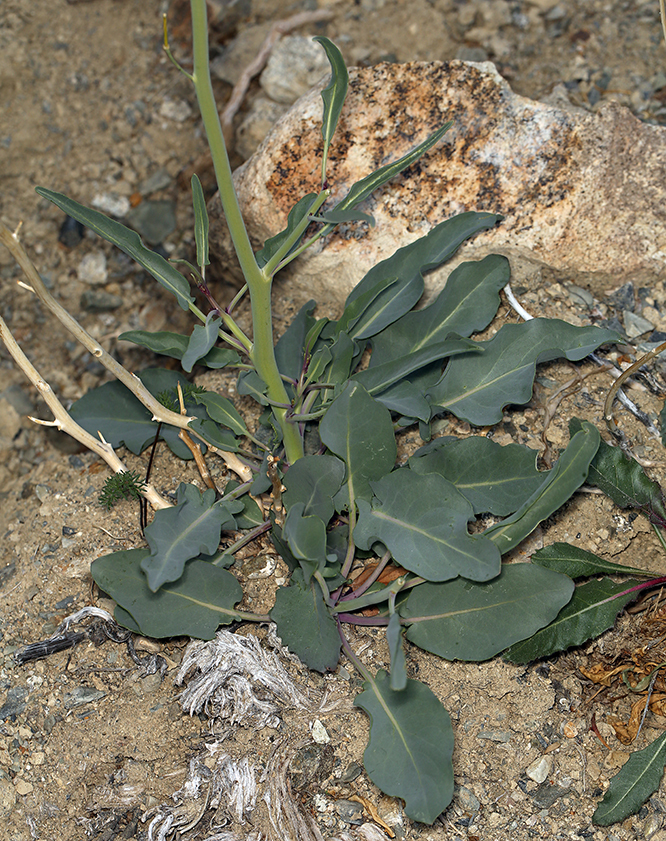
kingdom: Plantae
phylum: Tracheophyta
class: Magnoliopsida
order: Brassicales
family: Brassicaceae
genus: Streptanthus
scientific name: Streptanthus glaucus
